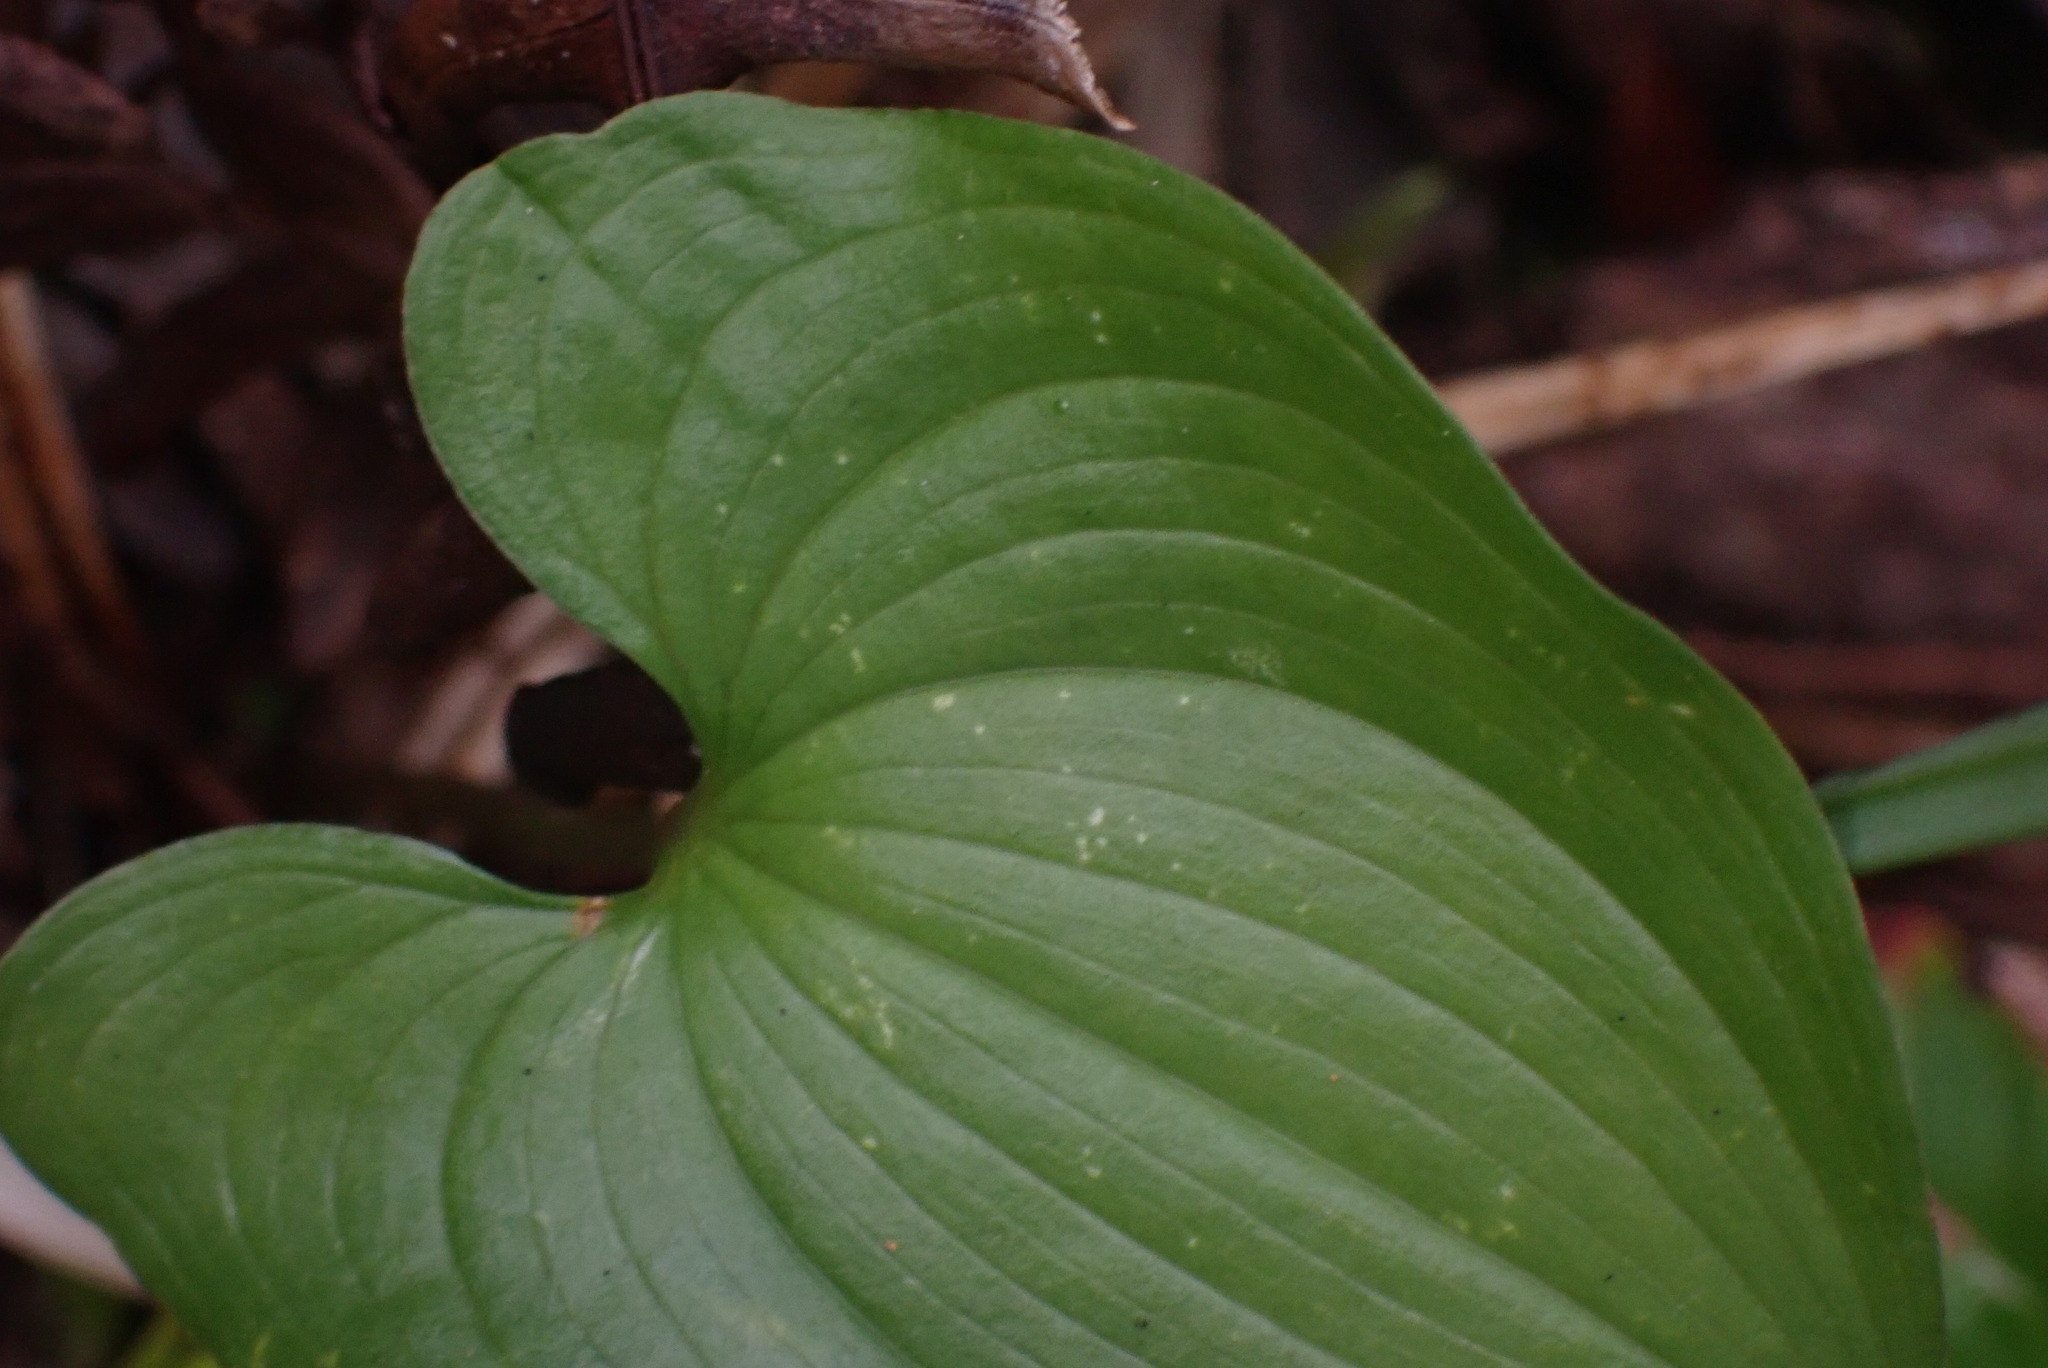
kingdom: Plantae
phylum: Tracheophyta
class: Liliopsida
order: Asparagales
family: Asparagaceae
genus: Maianthemum
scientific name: Maianthemum dilatatum
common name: False lily-of-the-valley
